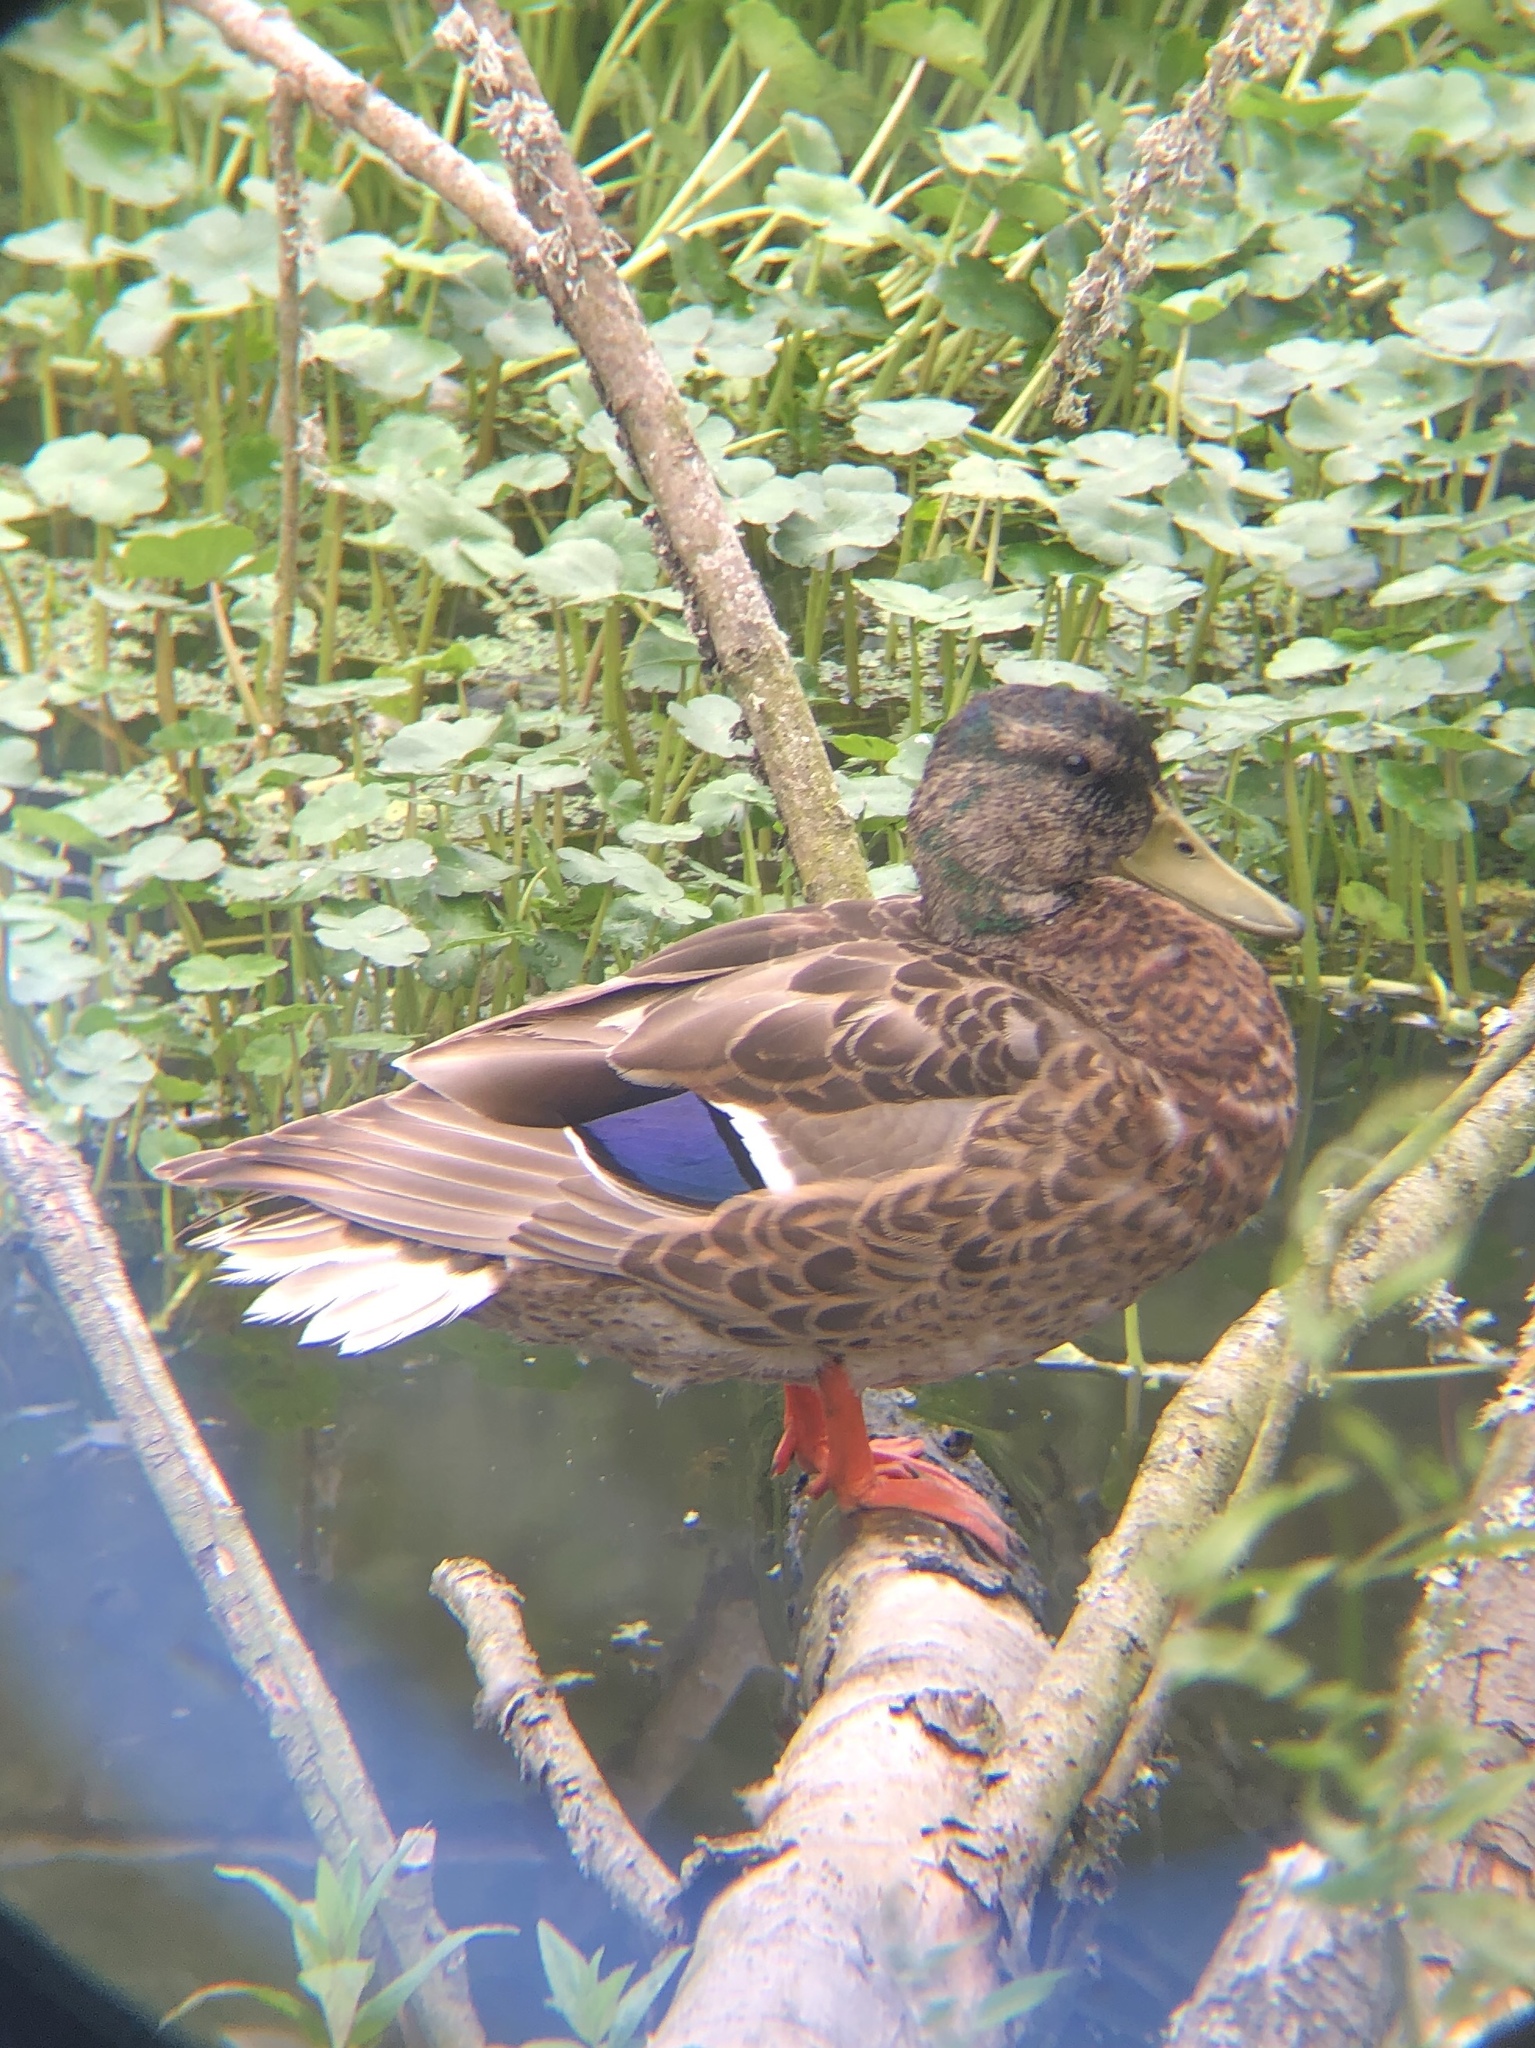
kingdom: Animalia
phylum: Chordata
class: Aves
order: Anseriformes
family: Anatidae
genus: Anas
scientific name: Anas platyrhynchos
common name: Mallard
